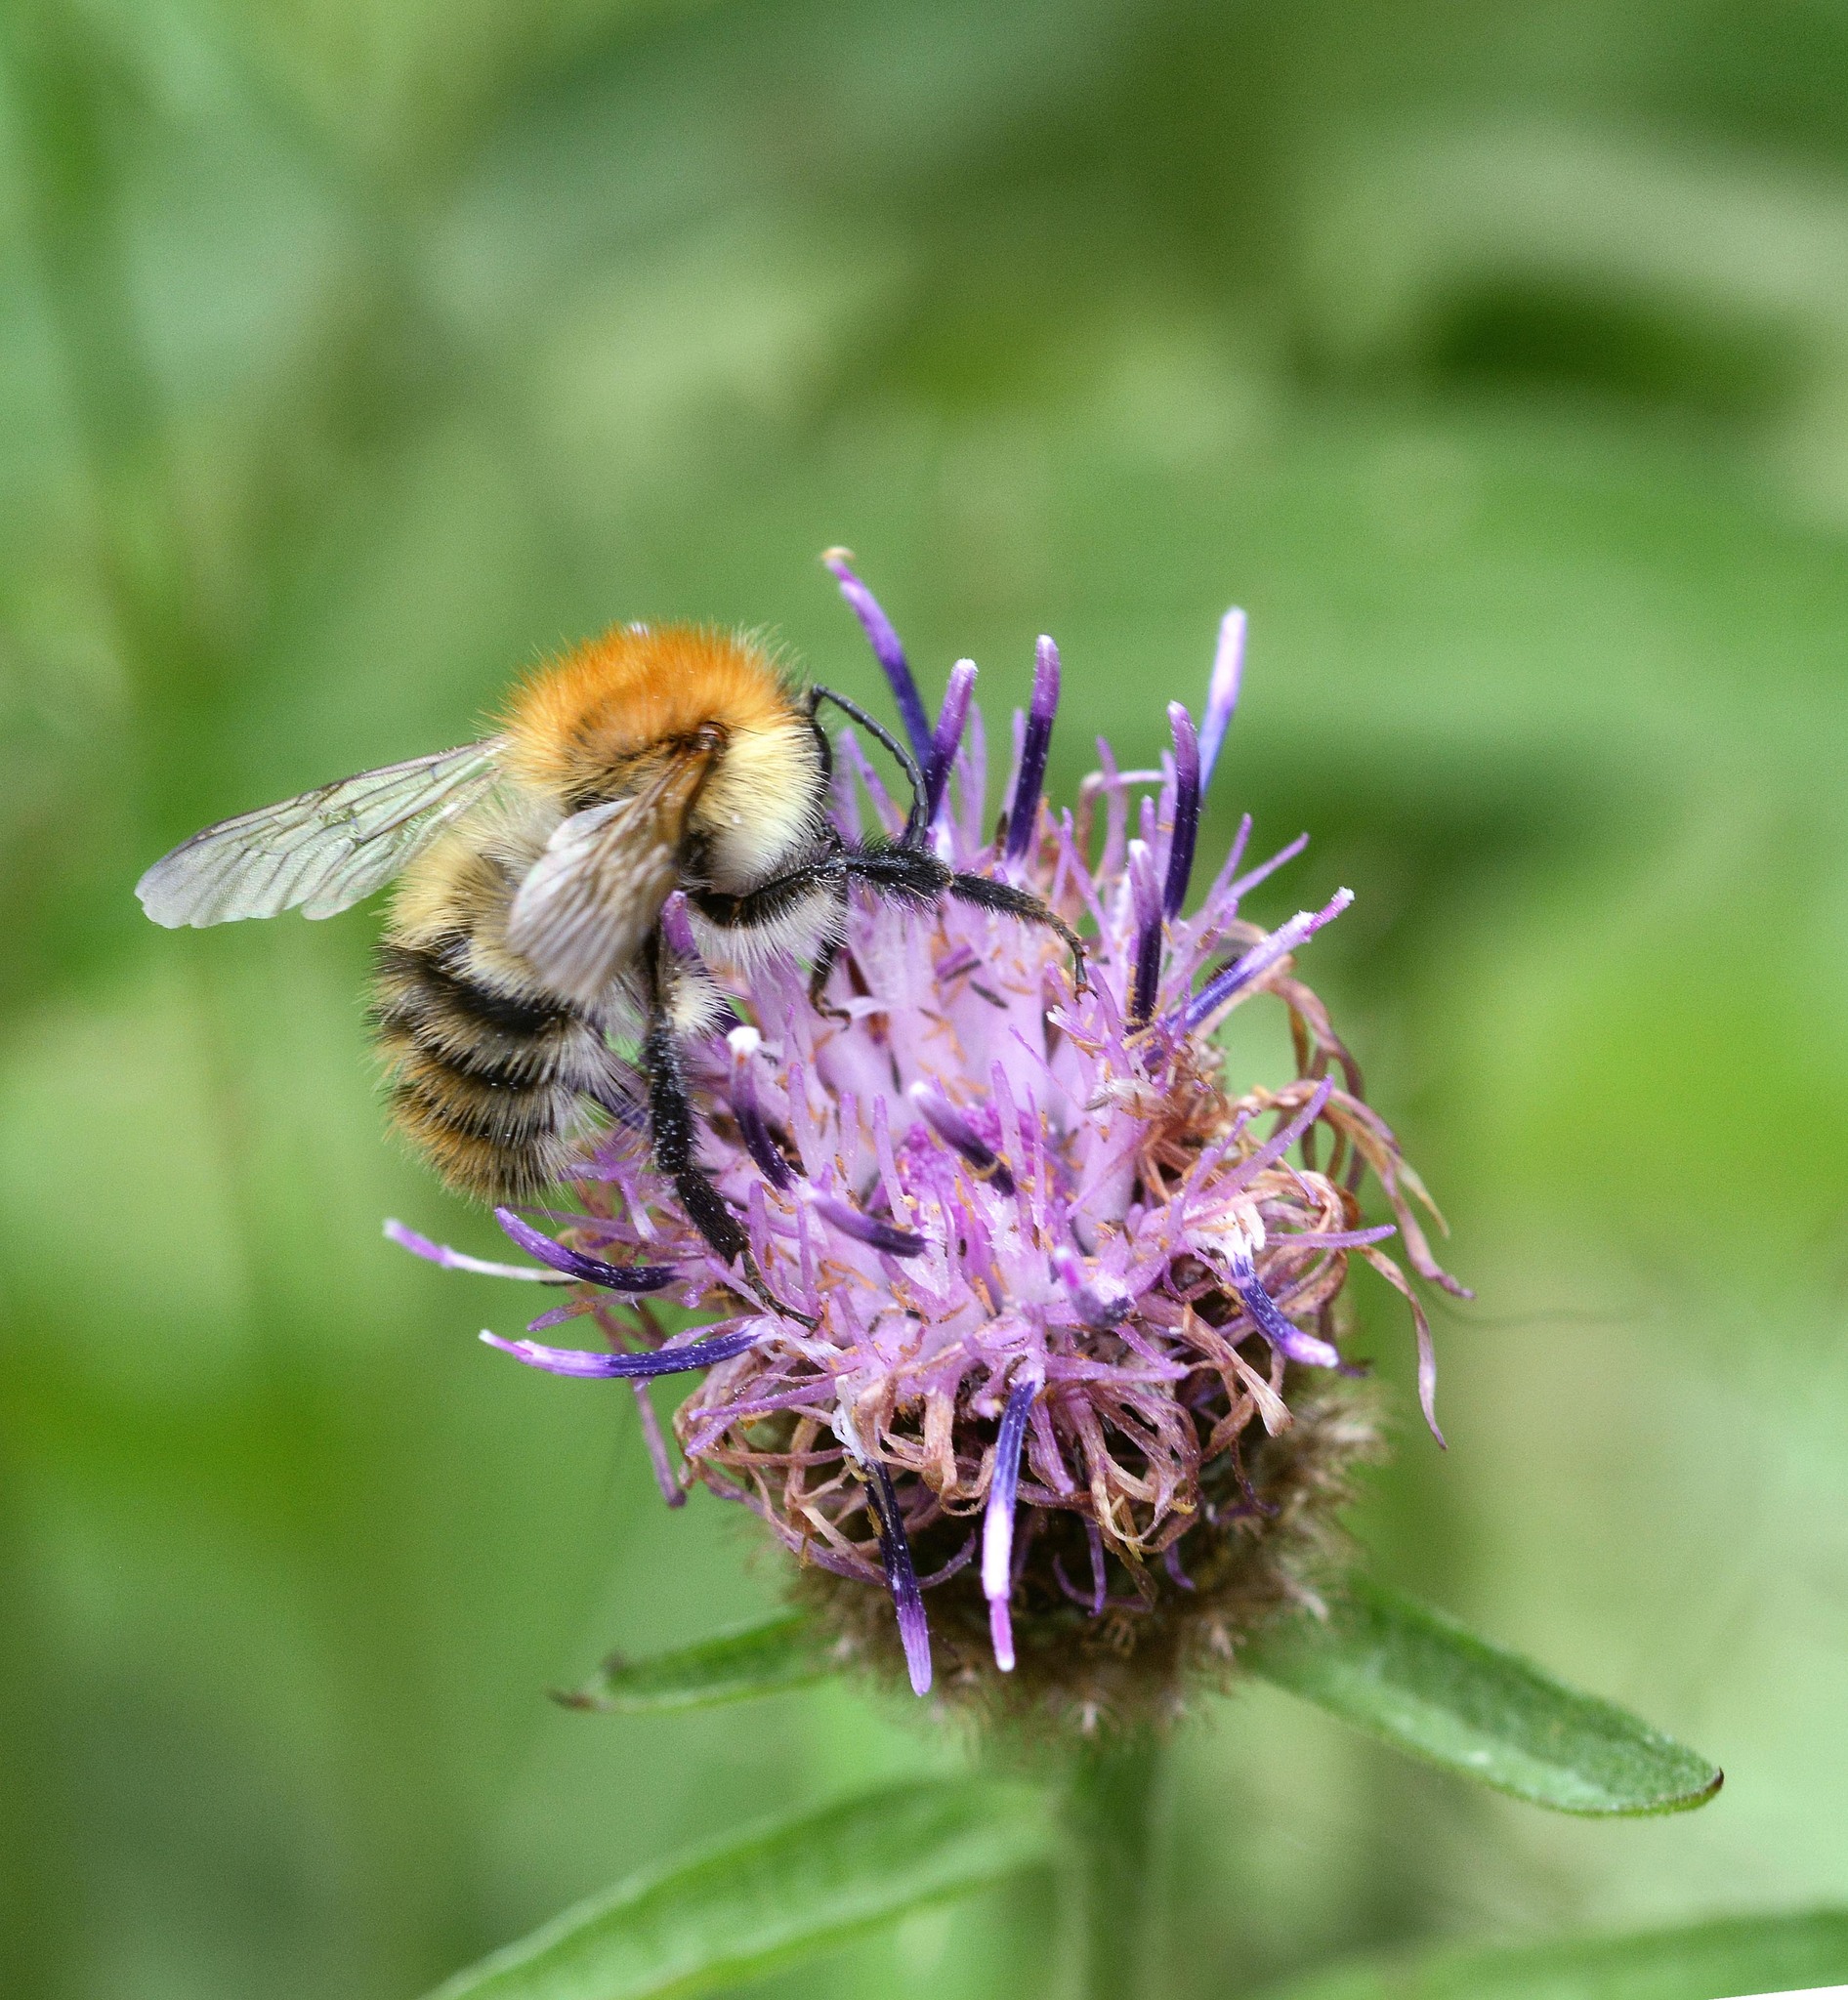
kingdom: Animalia
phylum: Arthropoda
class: Insecta
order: Hymenoptera
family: Apidae
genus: Bombus
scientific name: Bombus pascuorum
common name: Common carder bee
